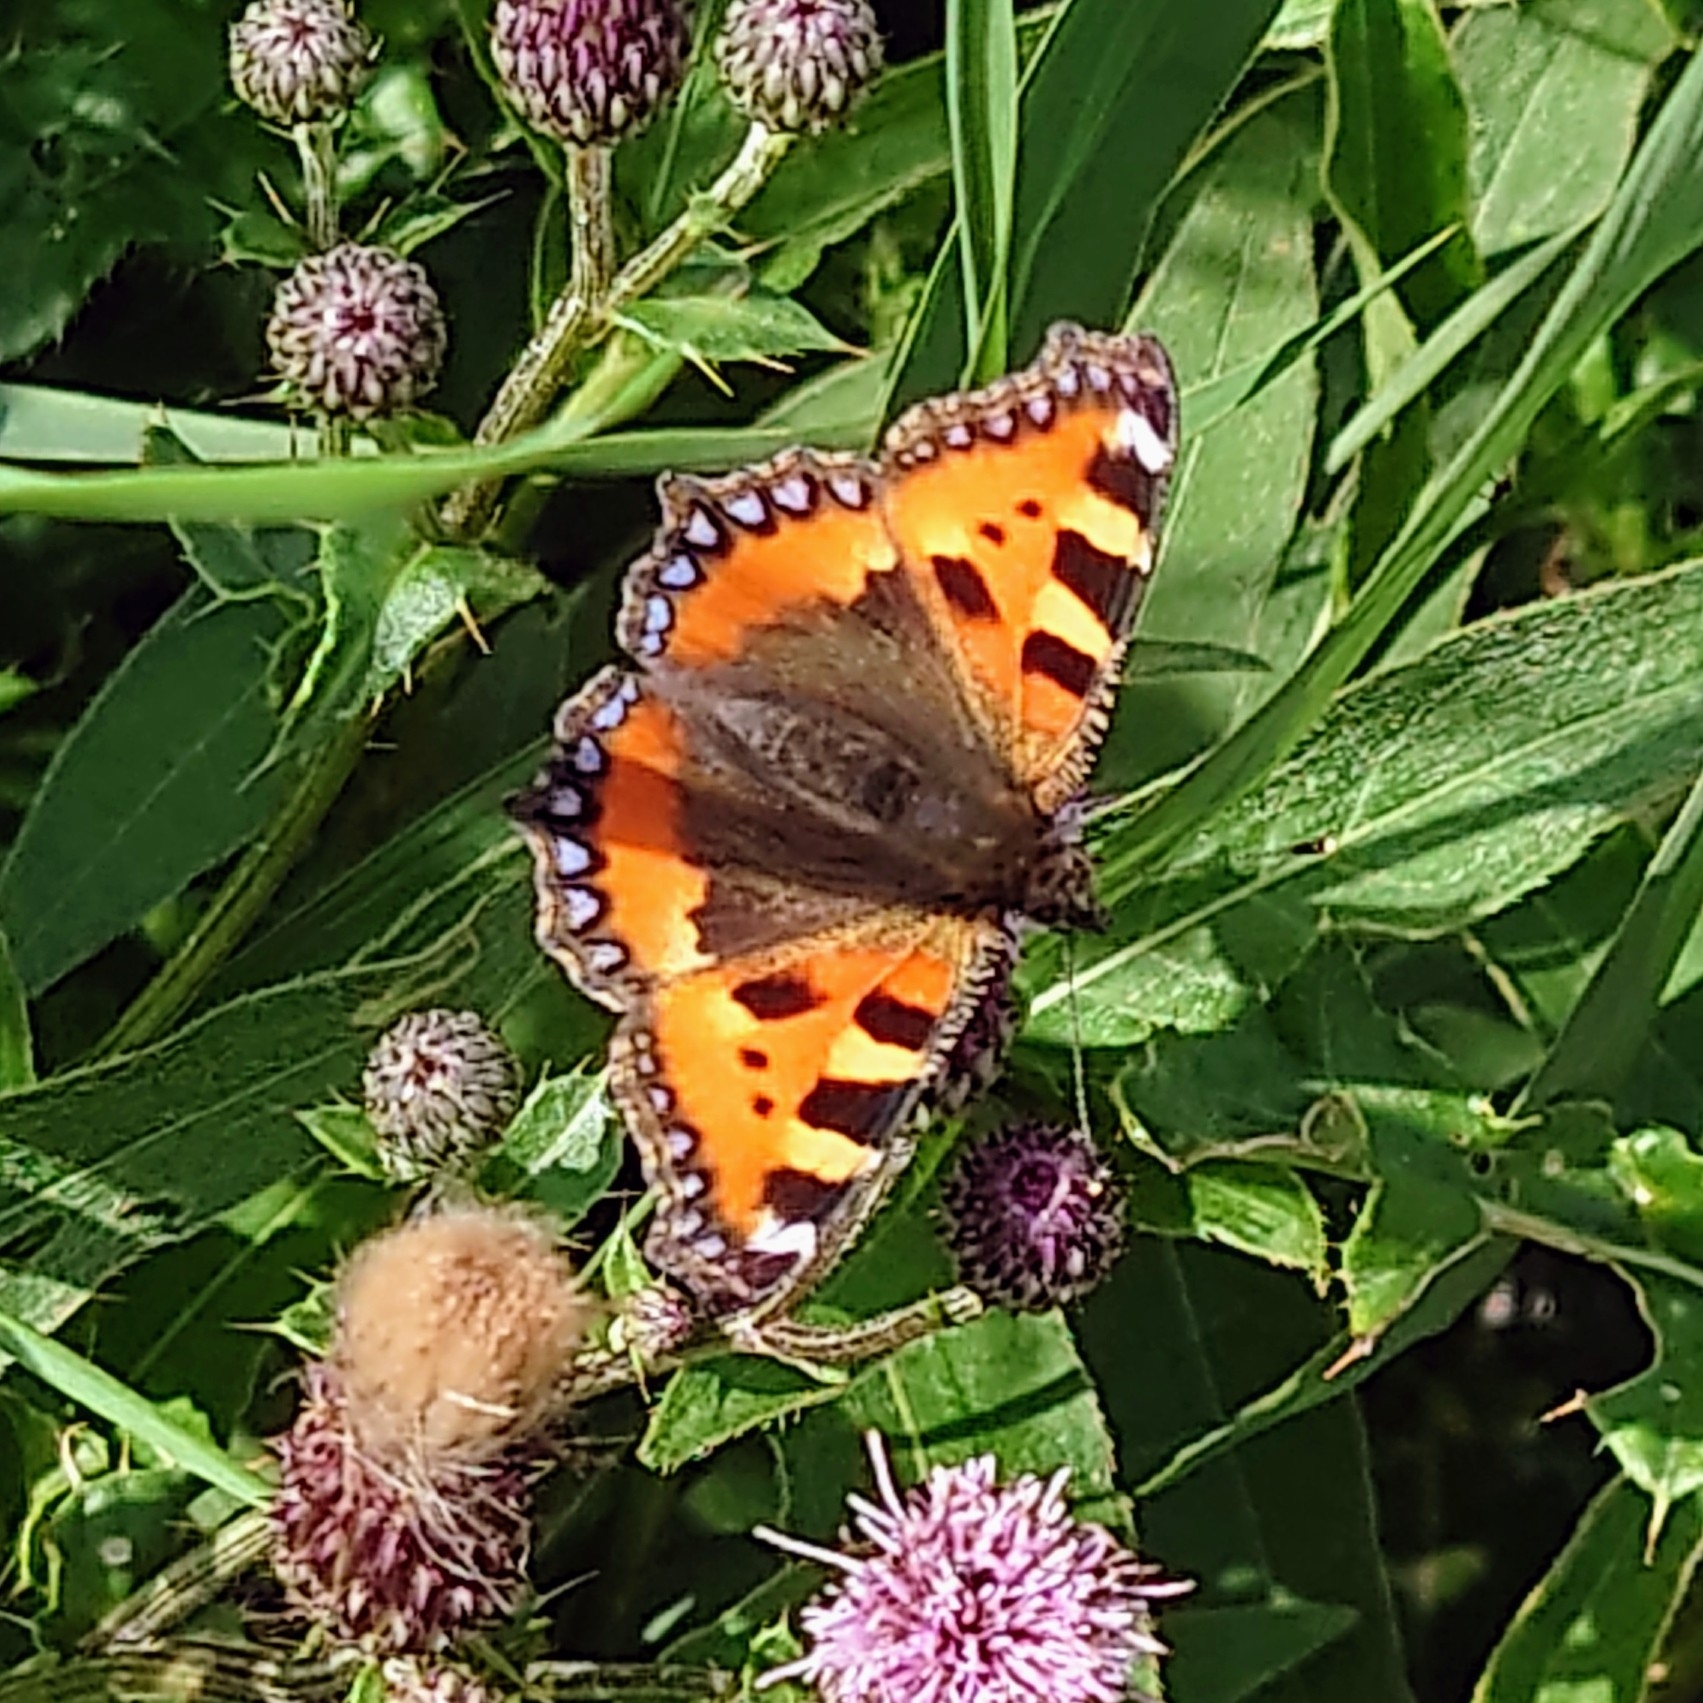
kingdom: Animalia
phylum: Arthropoda
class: Insecta
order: Lepidoptera
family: Nymphalidae
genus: Aglais
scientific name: Aglais urticae
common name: Small tortoiseshell
